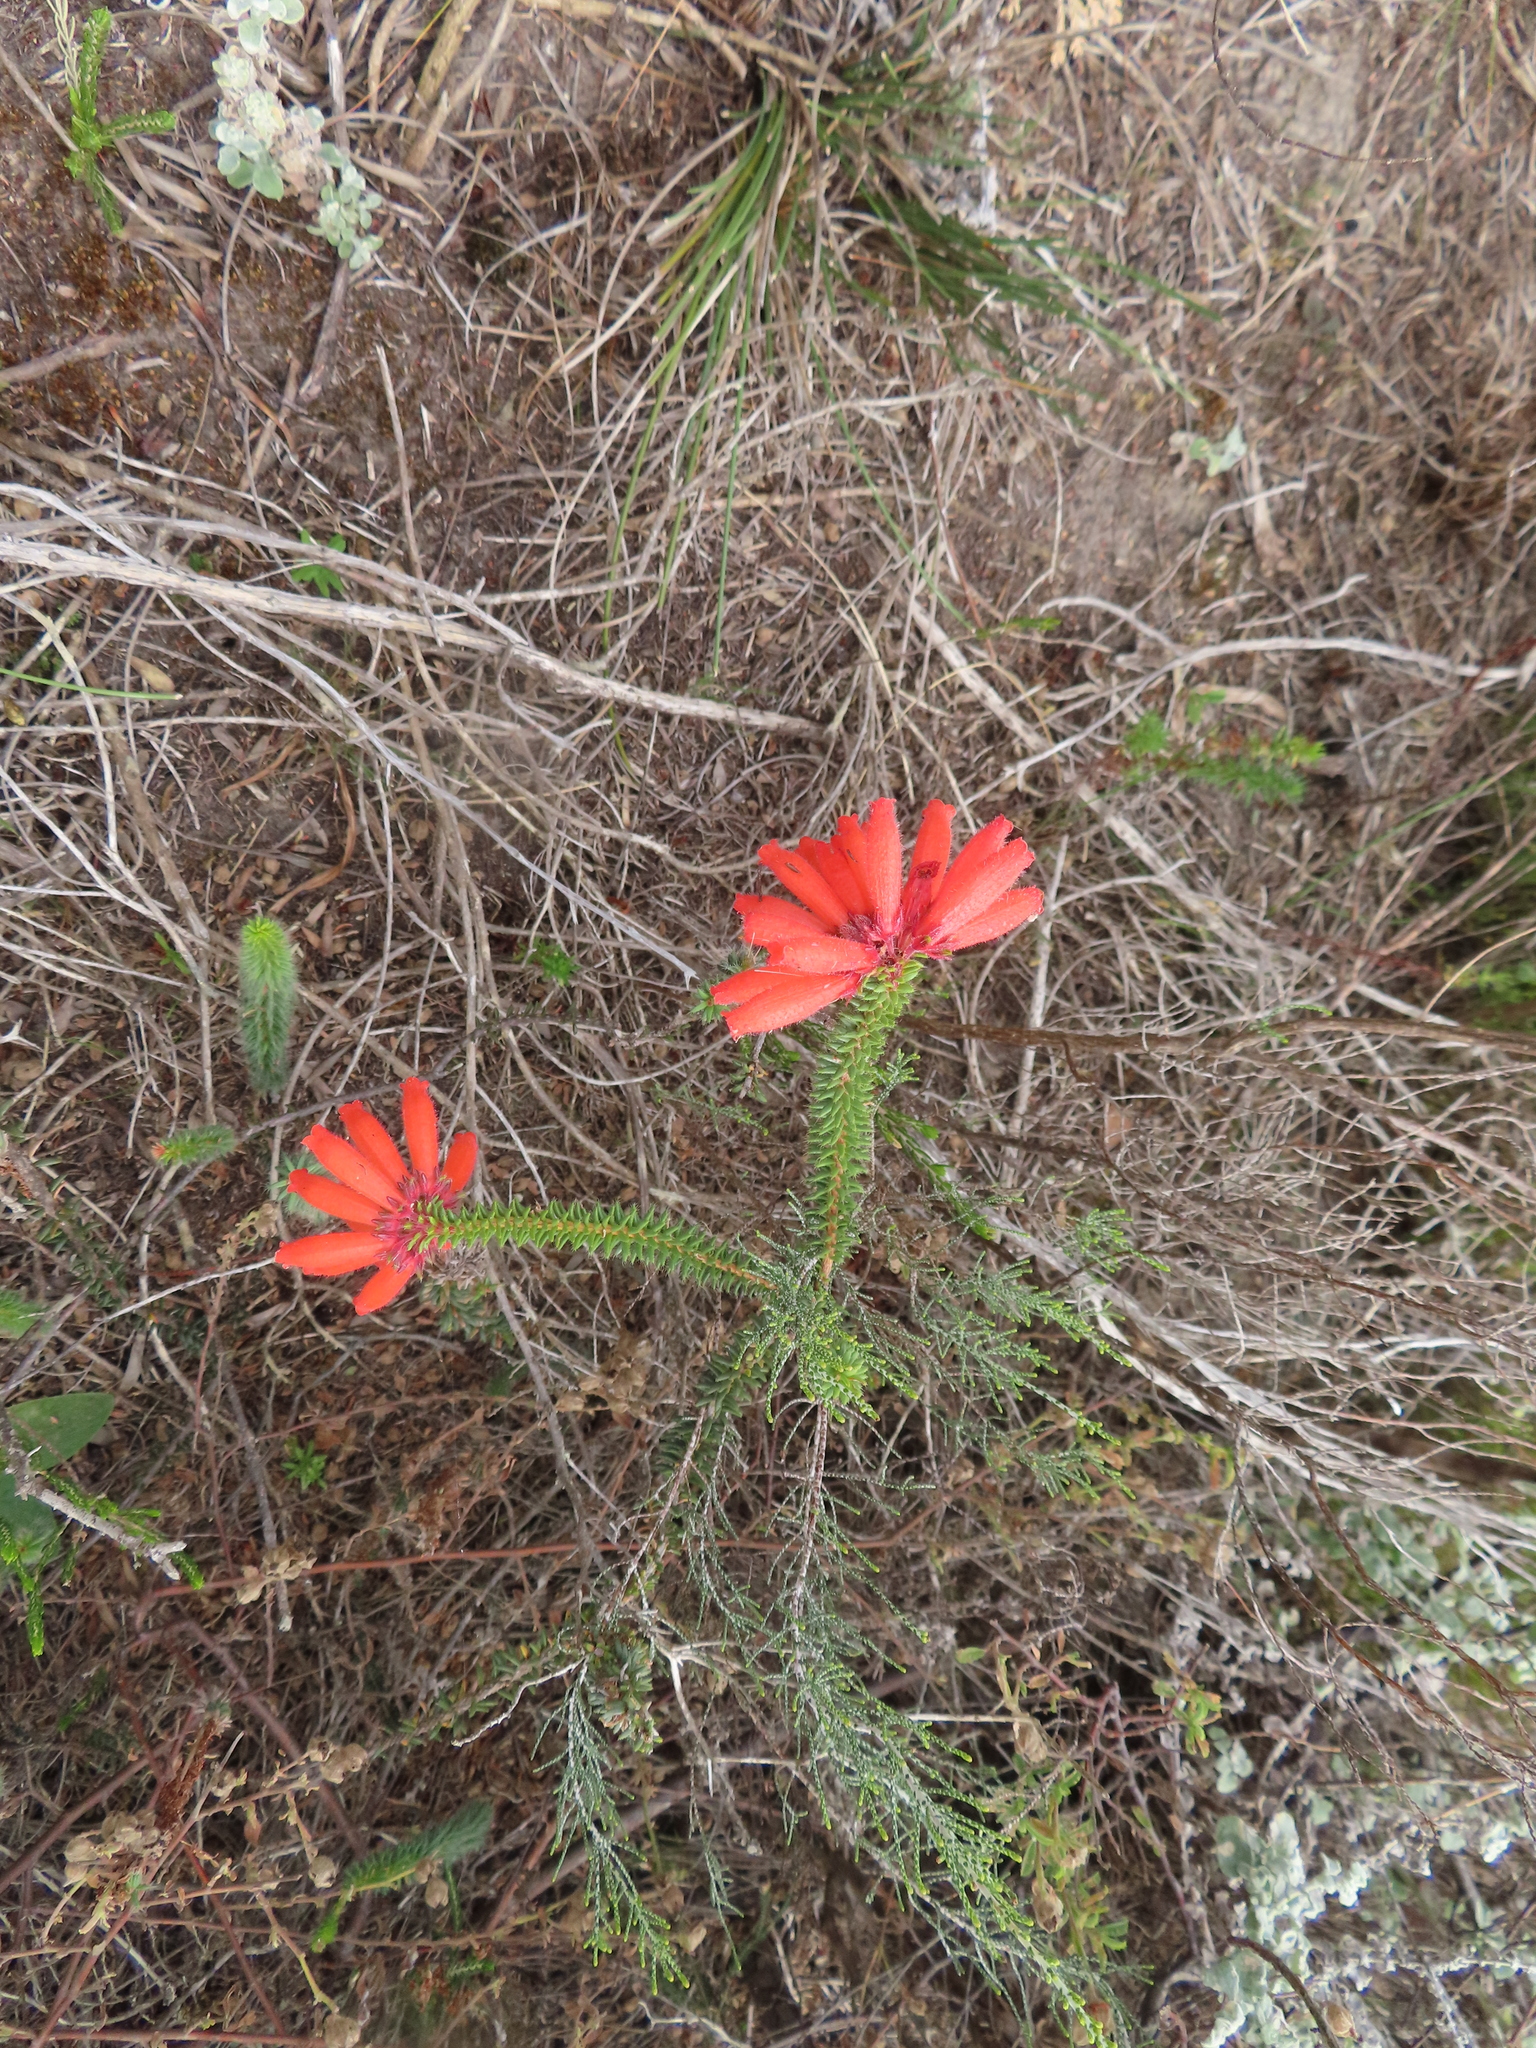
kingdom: Plantae
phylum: Tracheophyta
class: Magnoliopsida
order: Ericales
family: Ericaceae
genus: Erica
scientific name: Erica cerinthoides
